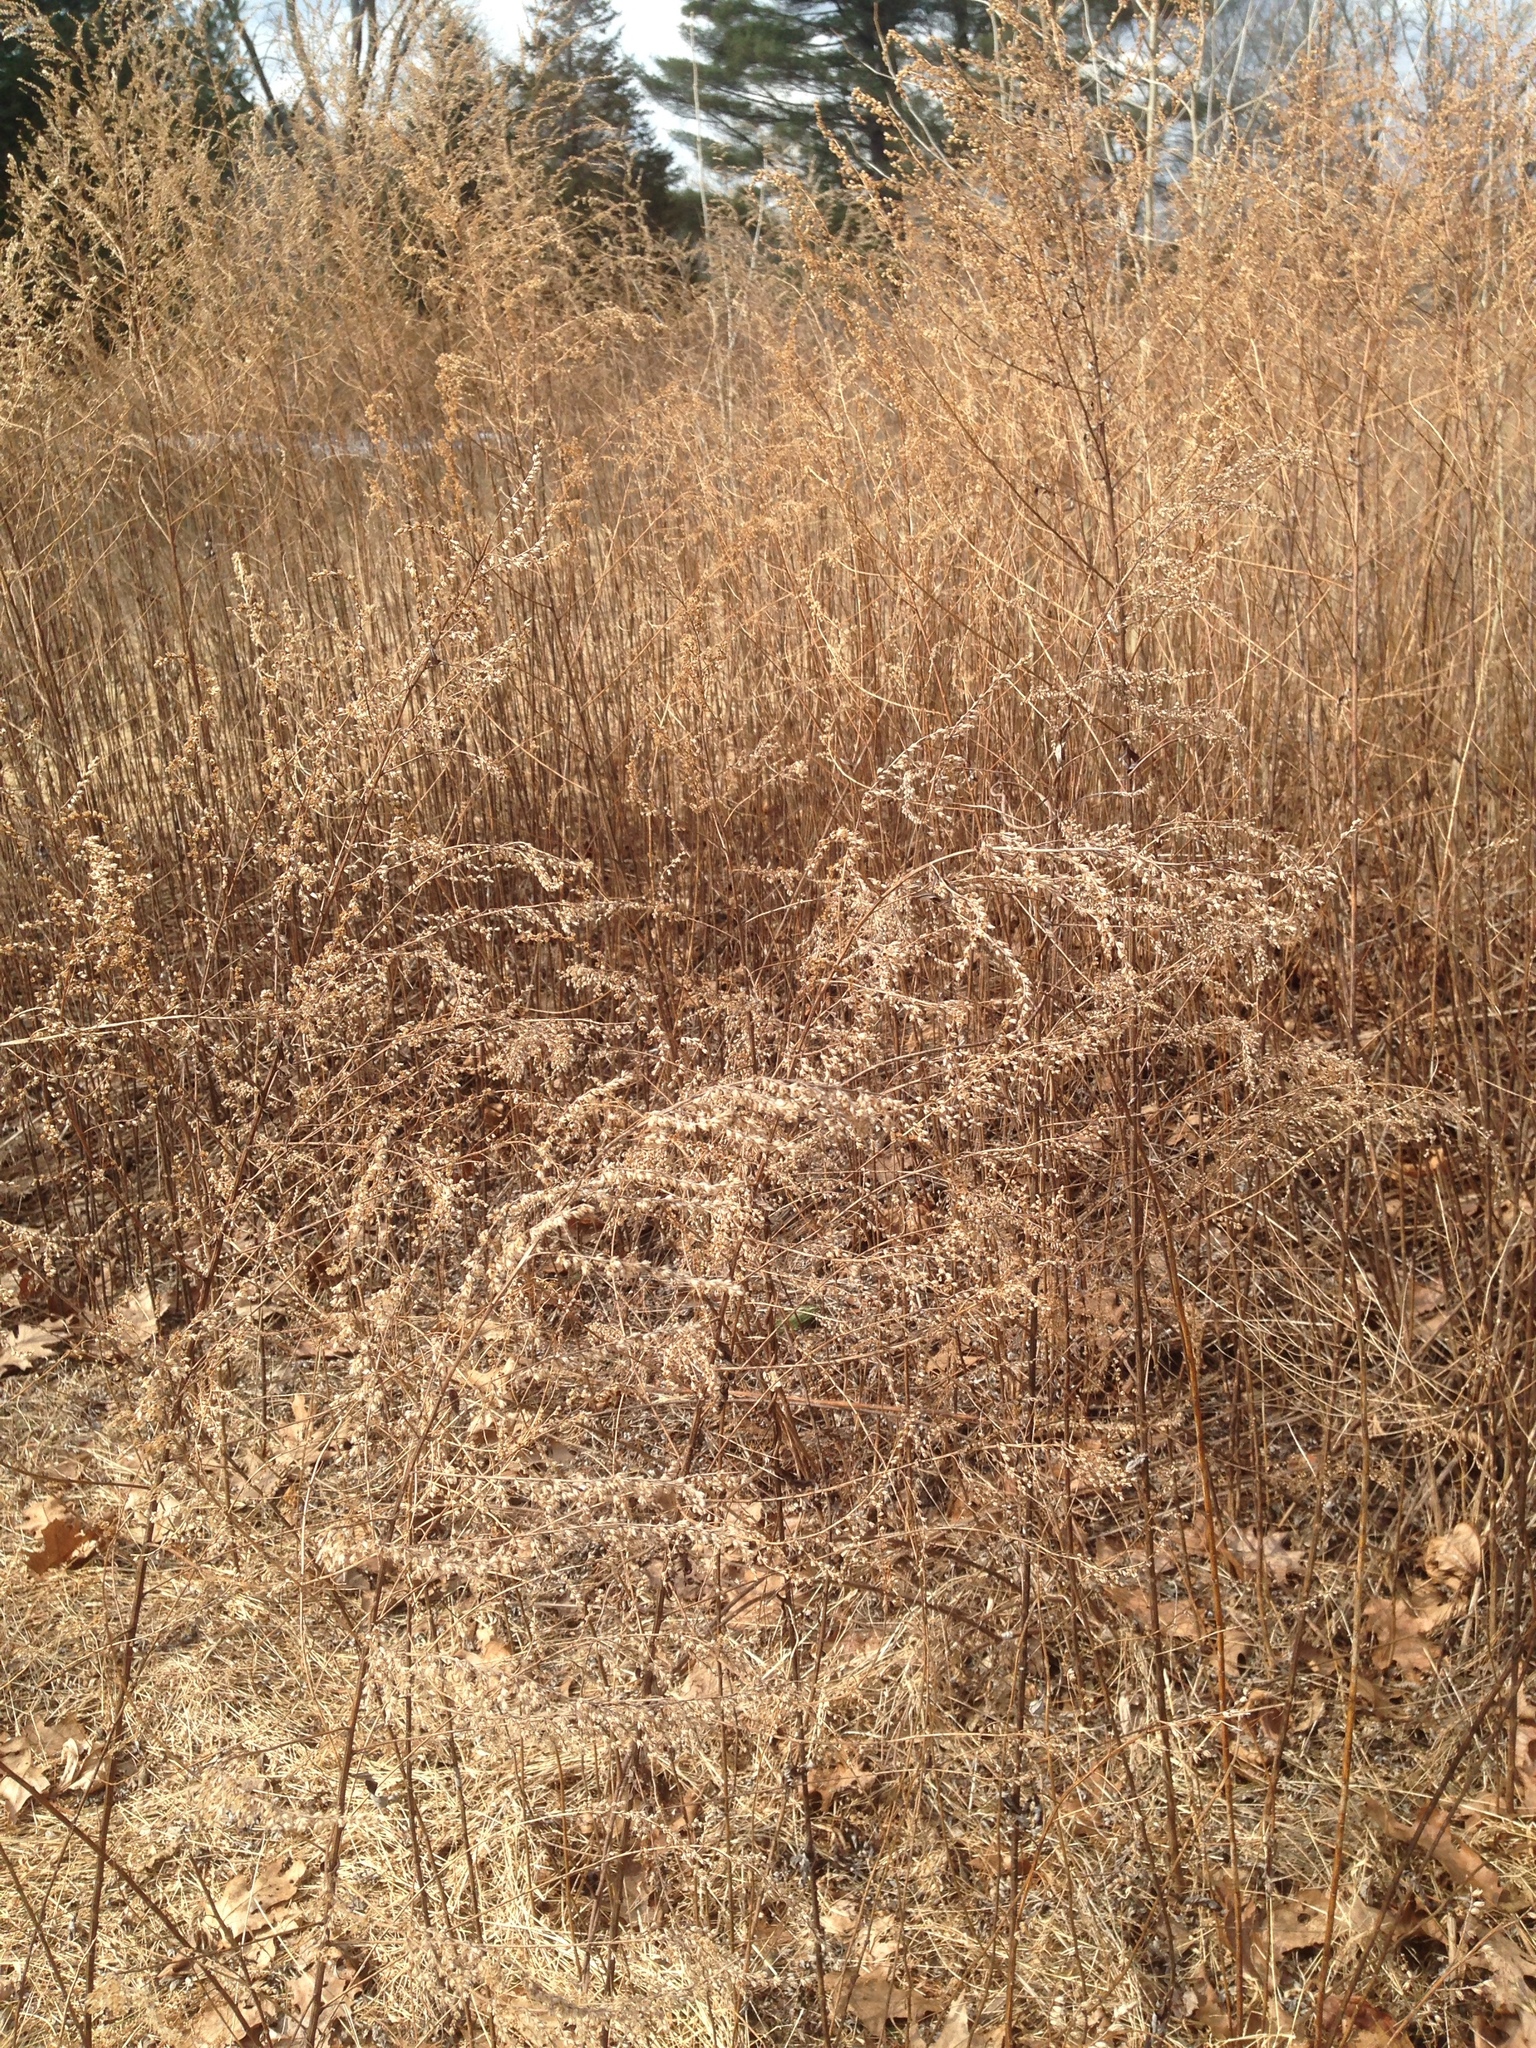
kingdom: Plantae
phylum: Tracheophyta
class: Magnoliopsida
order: Asterales
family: Asteraceae
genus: Artemisia
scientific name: Artemisia vulgaris
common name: Mugwort
